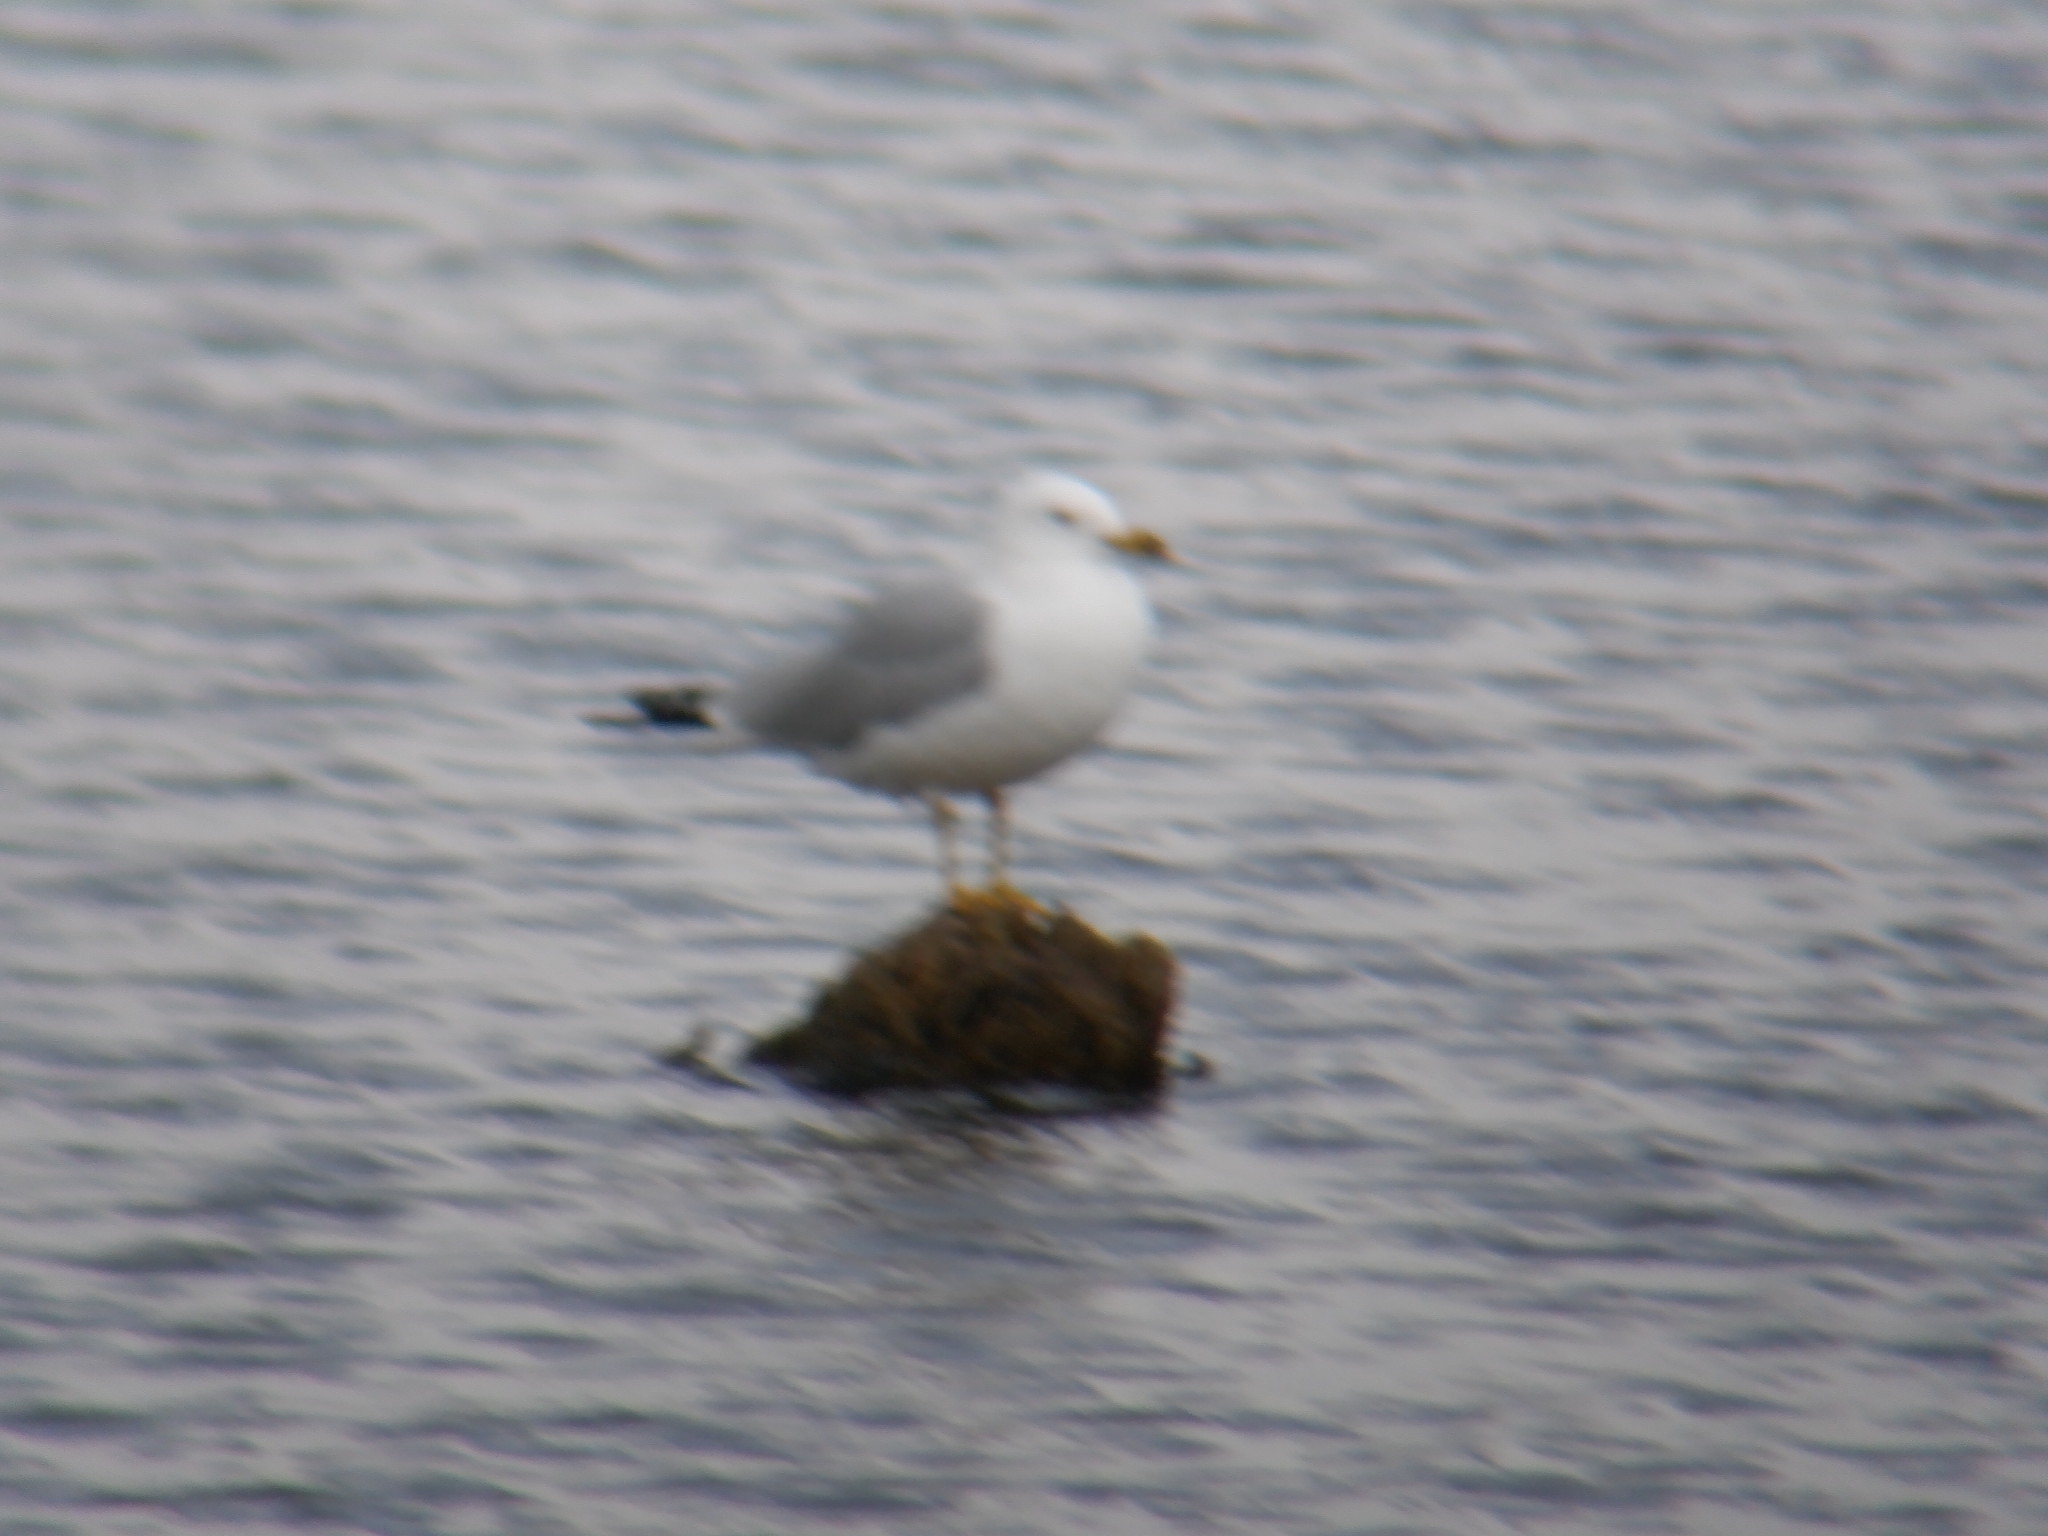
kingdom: Animalia
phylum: Chordata
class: Aves
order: Charadriiformes
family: Laridae
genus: Larus
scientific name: Larus delawarensis
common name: Ring-billed gull
